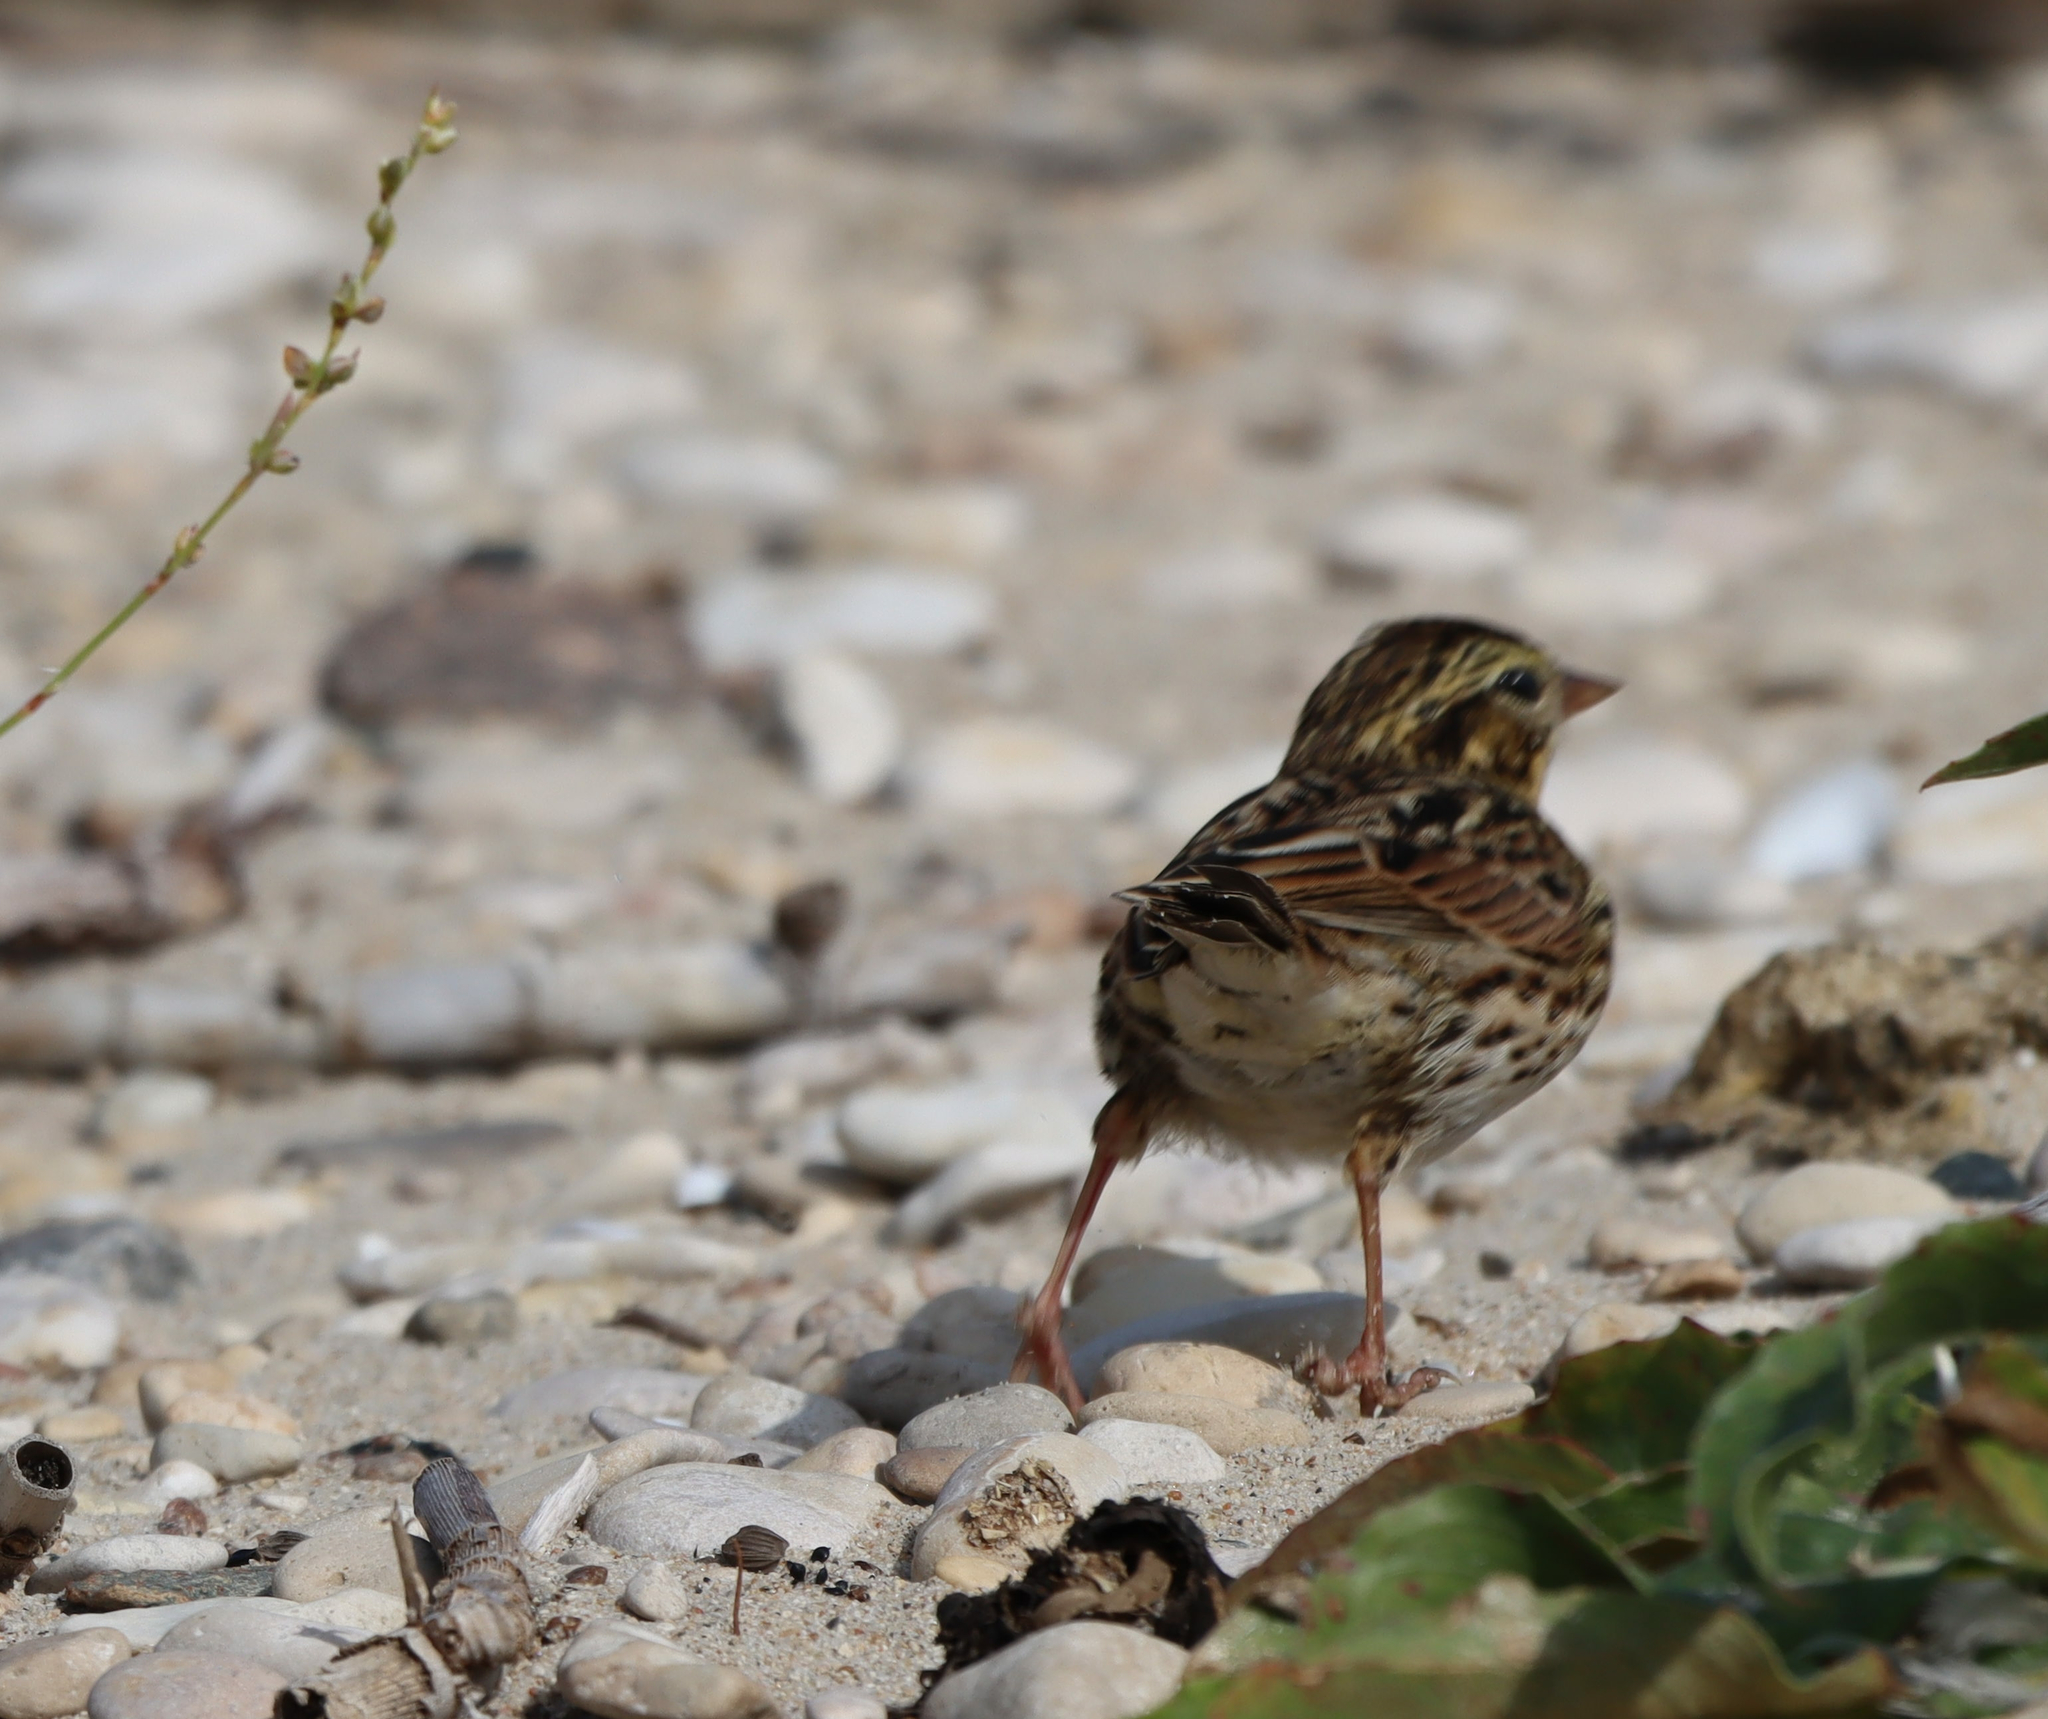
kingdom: Animalia
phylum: Chordata
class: Aves
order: Passeriformes
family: Passerellidae
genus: Passerculus
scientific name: Passerculus sandwichensis
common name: Savannah sparrow
